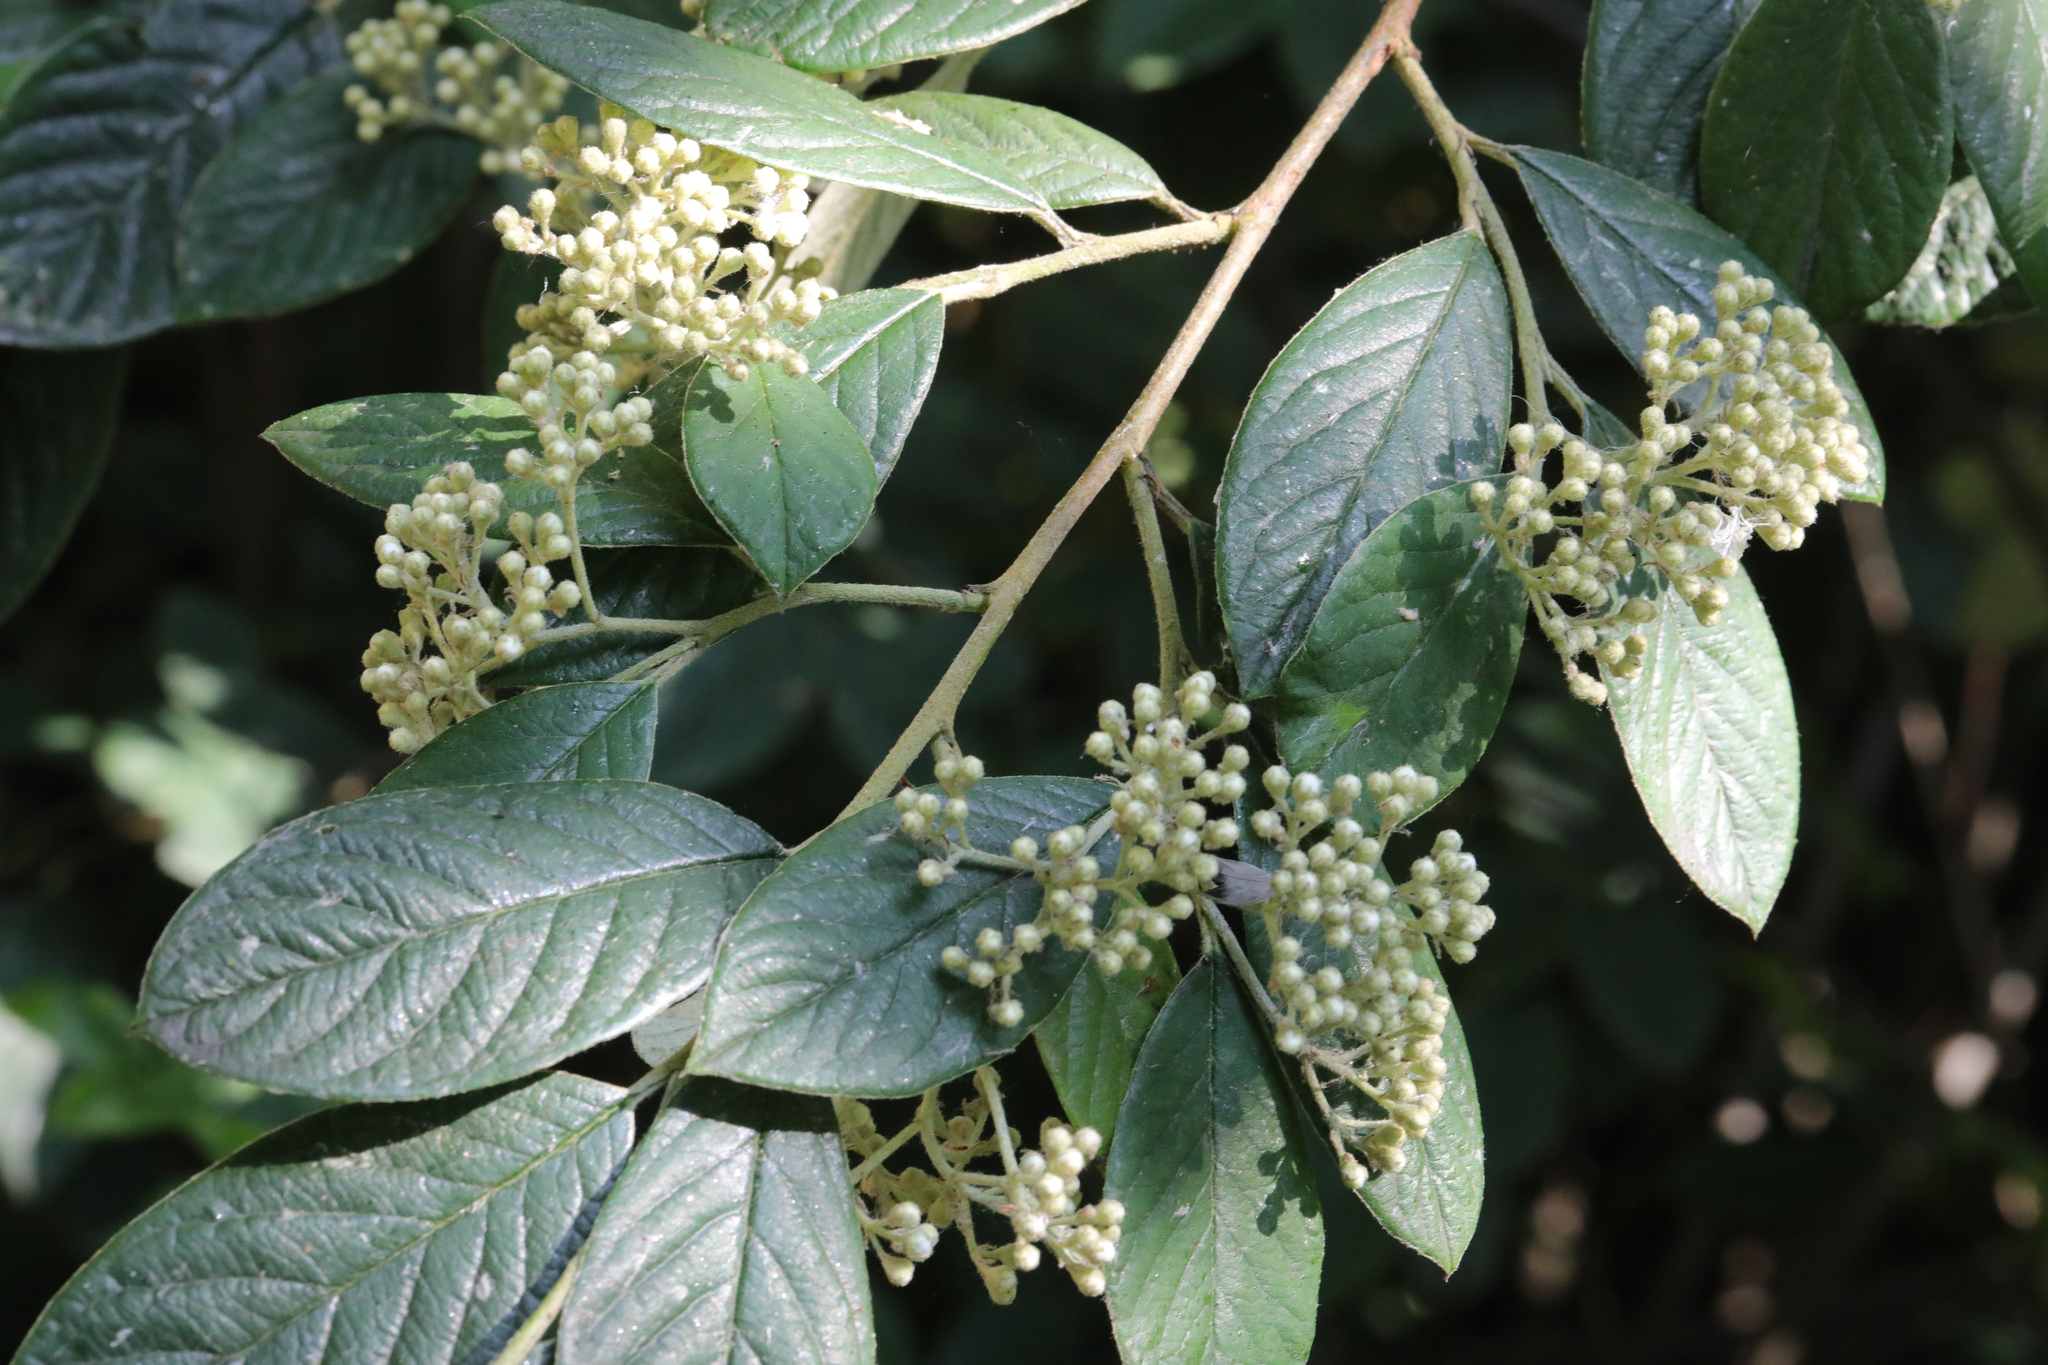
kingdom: Plantae
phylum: Tracheophyta
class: Magnoliopsida
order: Rosales
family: Rosaceae
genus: Cotoneaster
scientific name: Cotoneaster coriaceus
